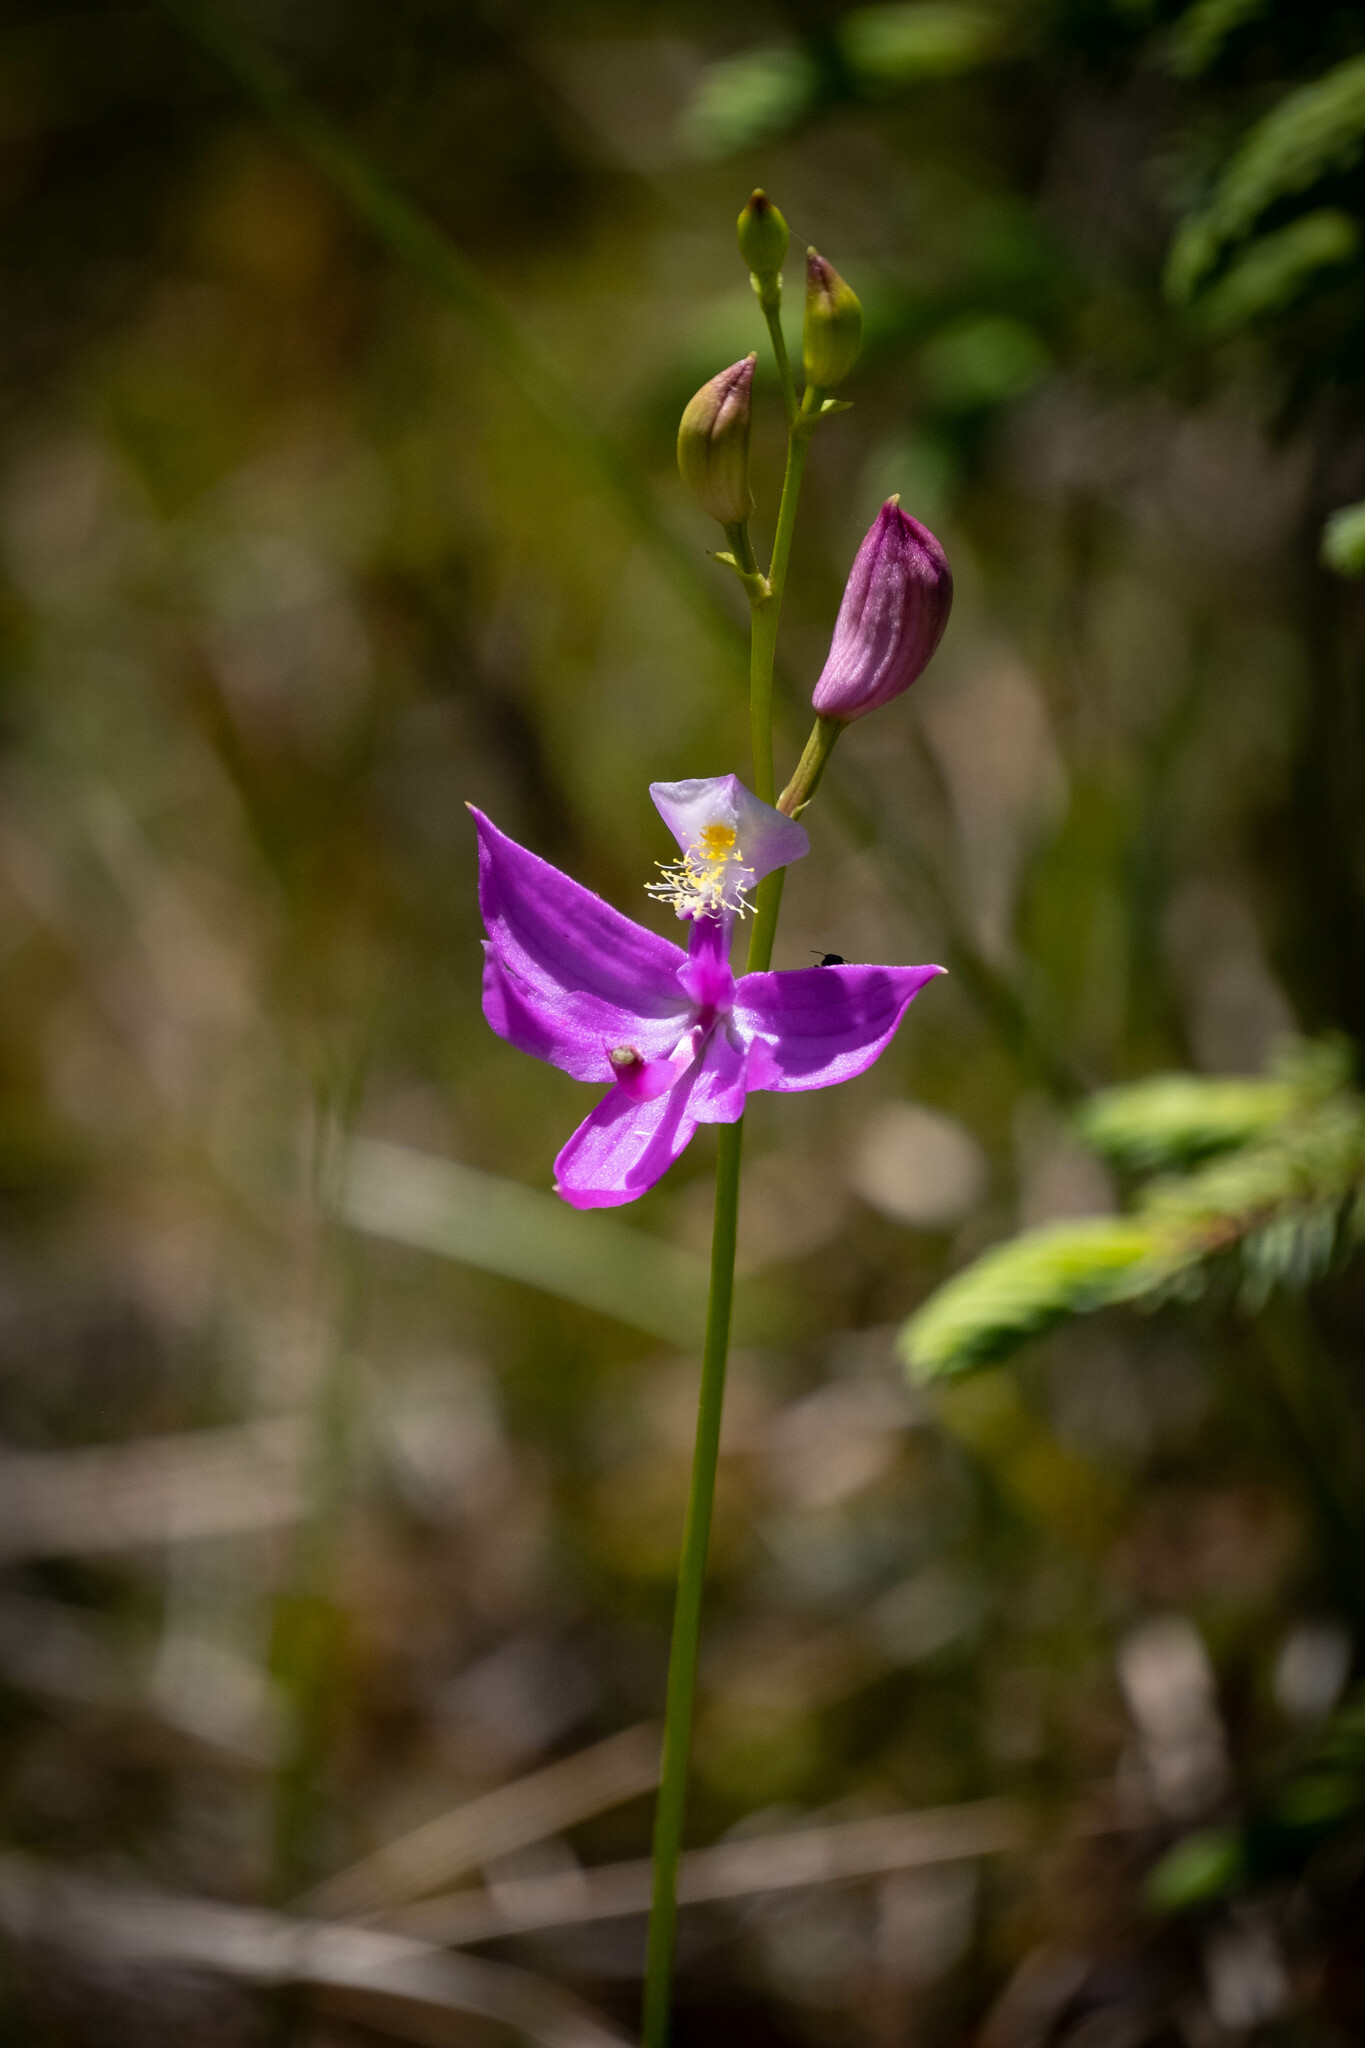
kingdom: Plantae
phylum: Tracheophyta
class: Liliopsida
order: Asparagales
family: Orchidaceae
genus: Calopogon
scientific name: Calopogon tuberosus
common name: Grass-pink
